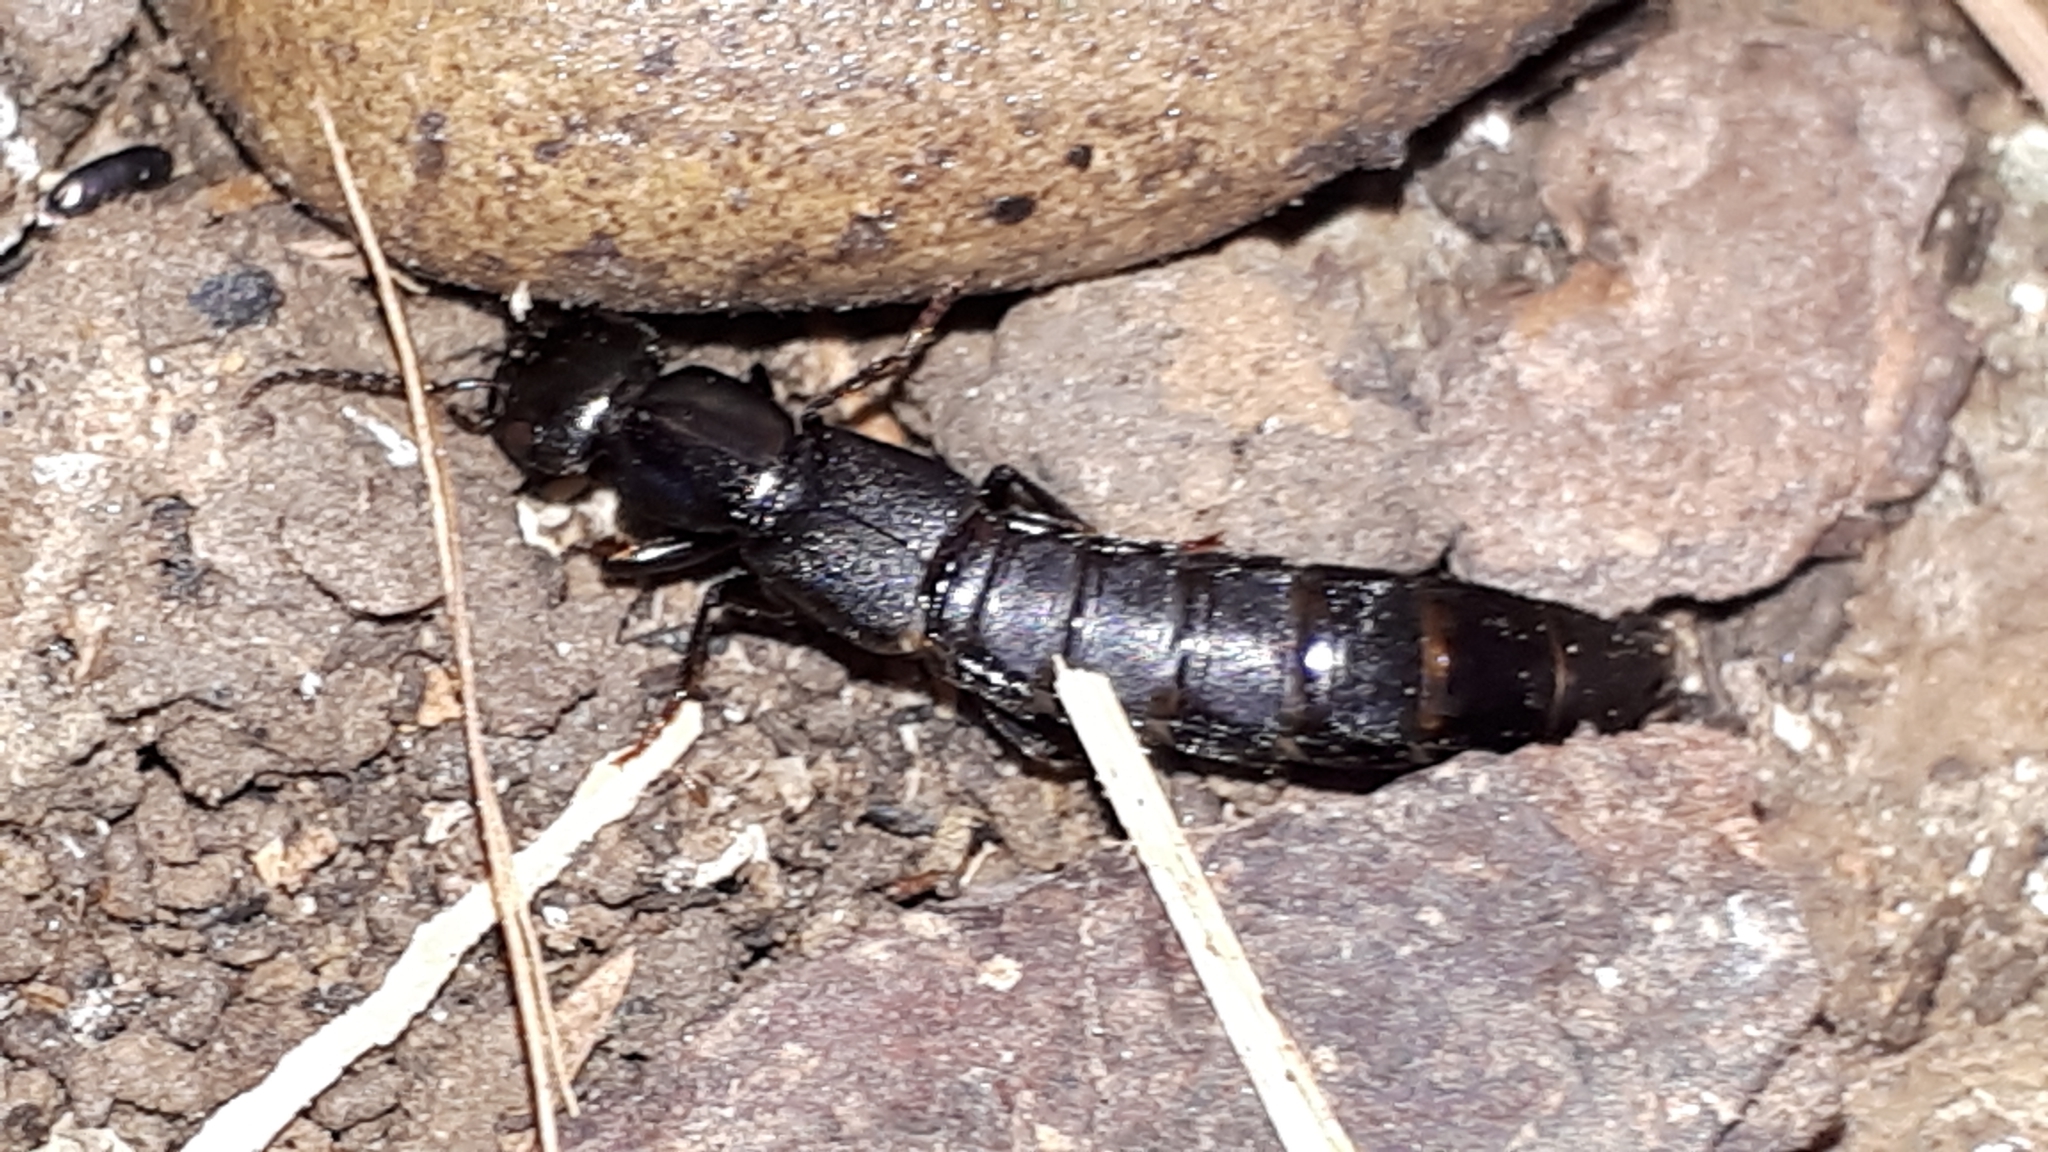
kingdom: Animalia
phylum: Arthropoda
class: Insecta
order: Coleoptera
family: Staphylinidae
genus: Tasgius
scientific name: Tasgius ater
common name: Staph beetle
